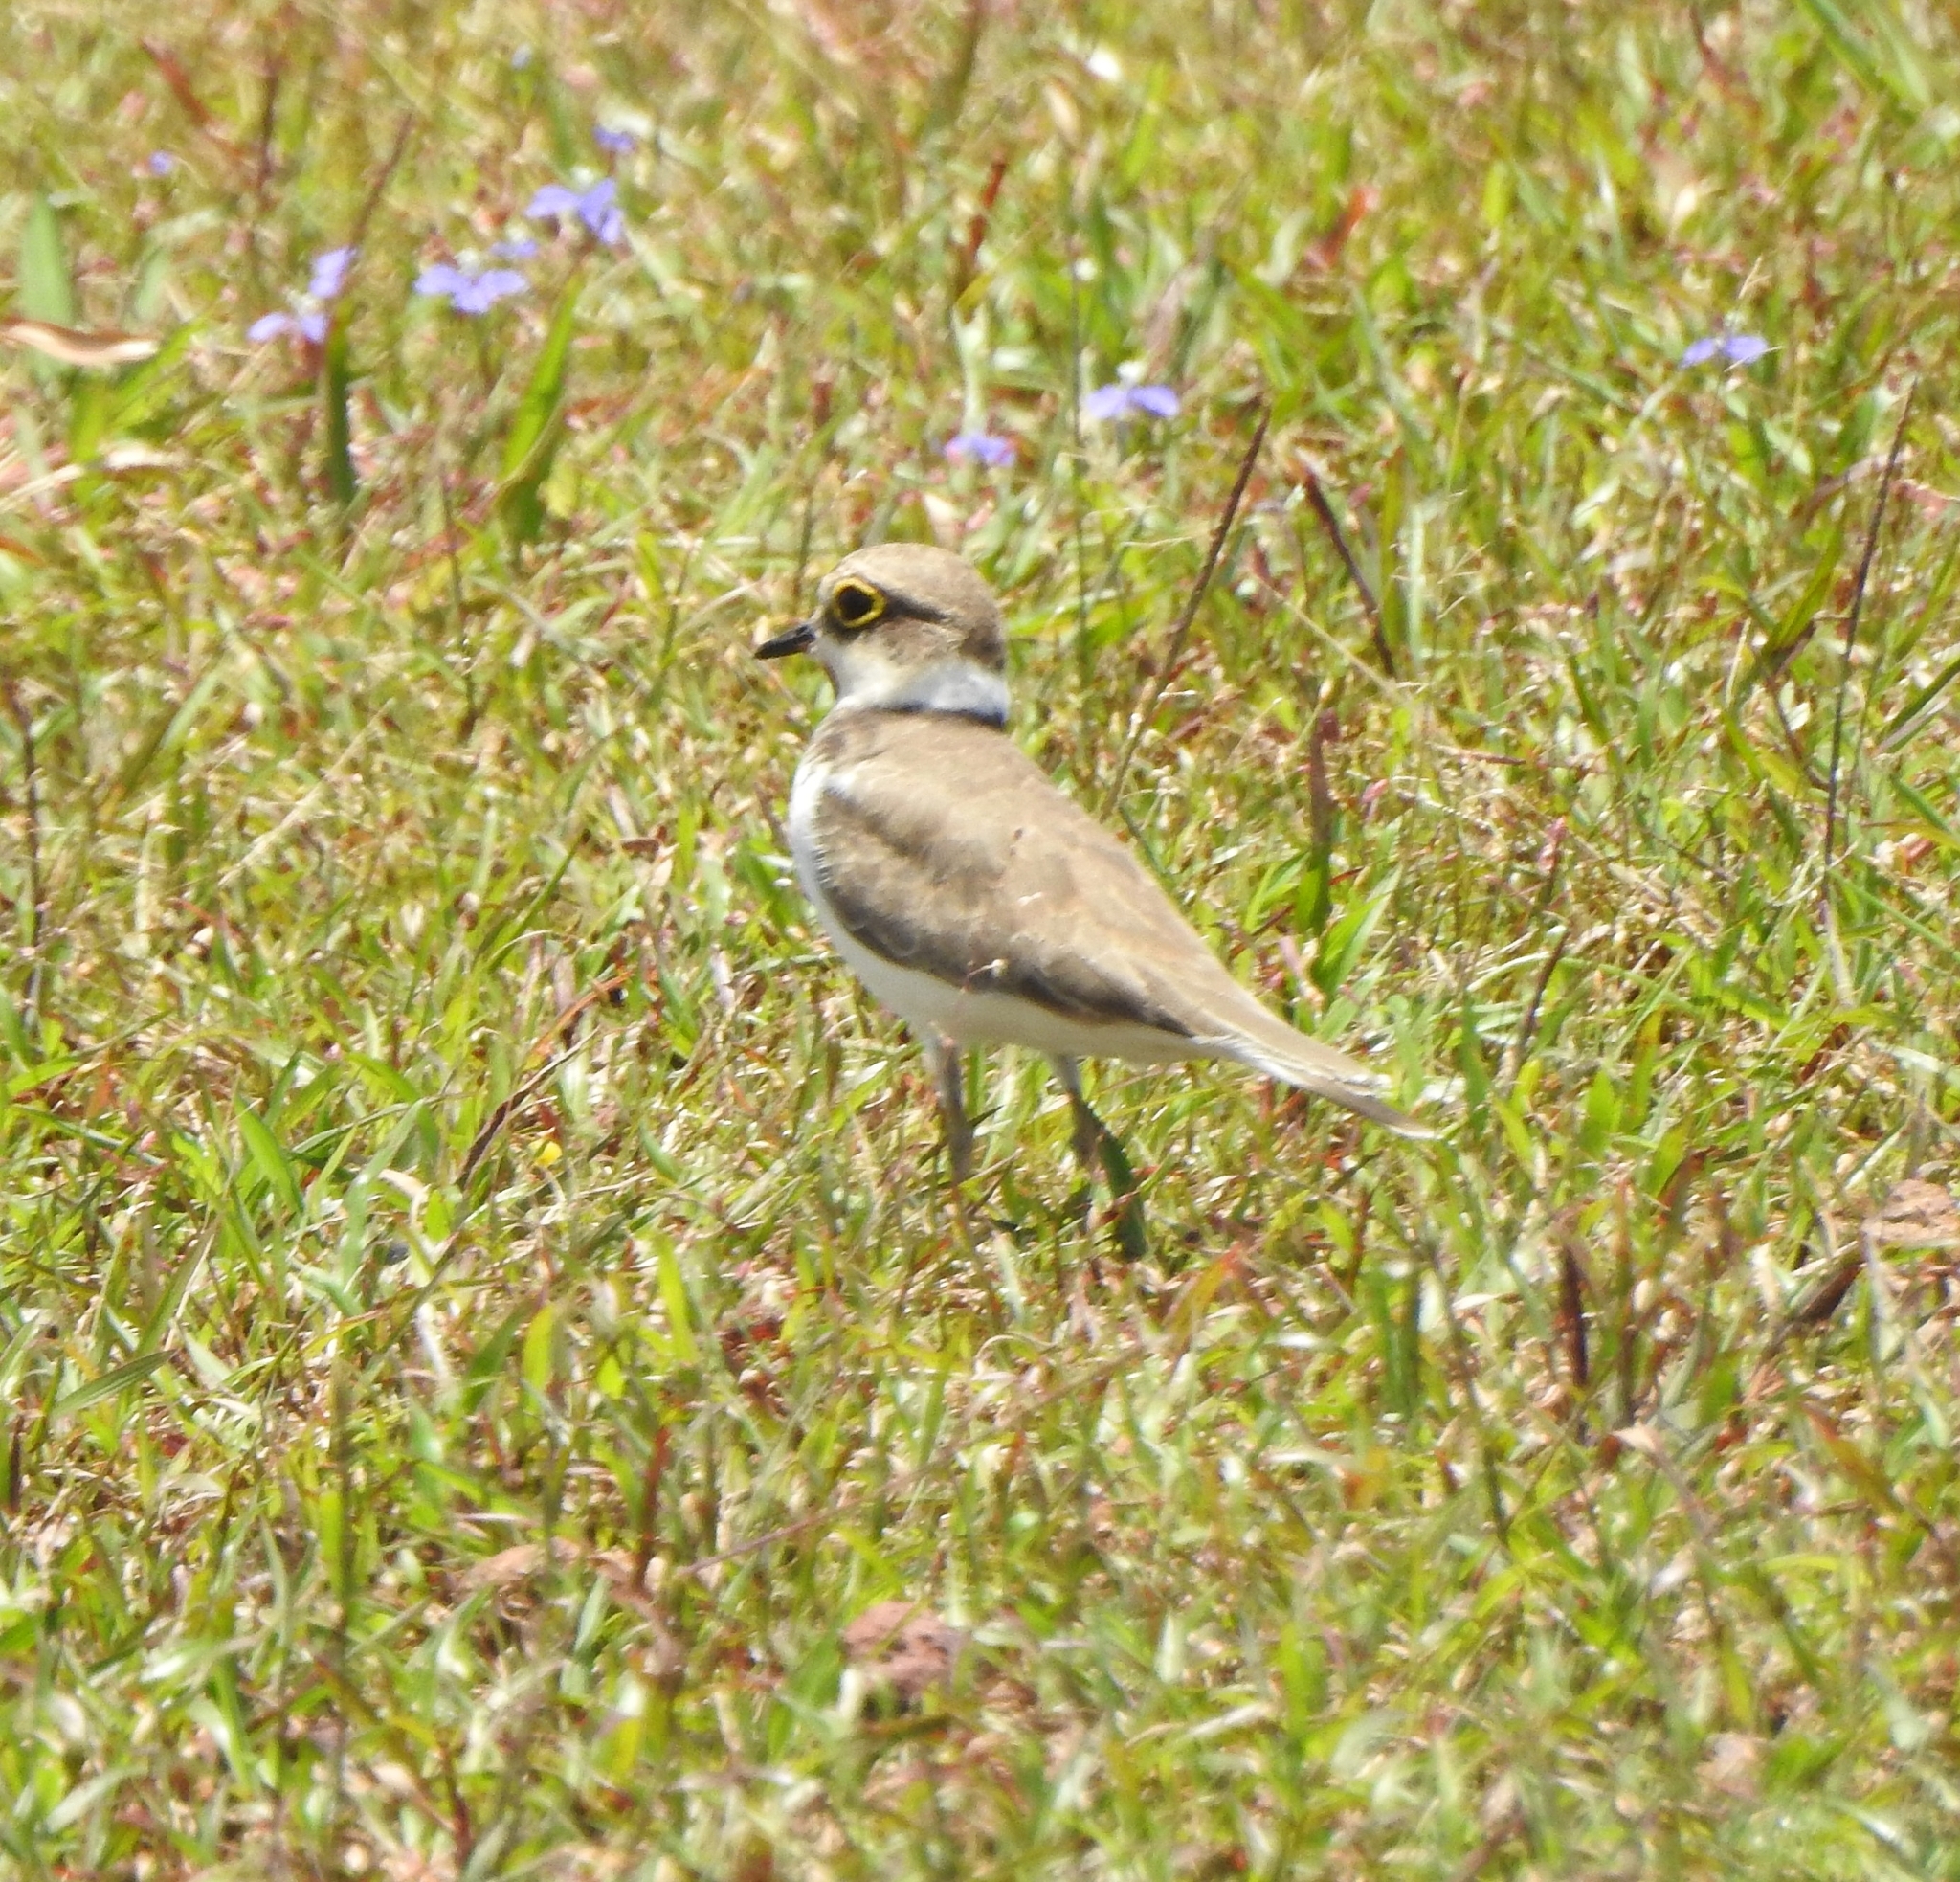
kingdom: Animalia
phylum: Chordata
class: Aves
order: Charadriiformes
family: Charadriidae
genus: Charadrius
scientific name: Charadrius dubius
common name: Little ringed plover
